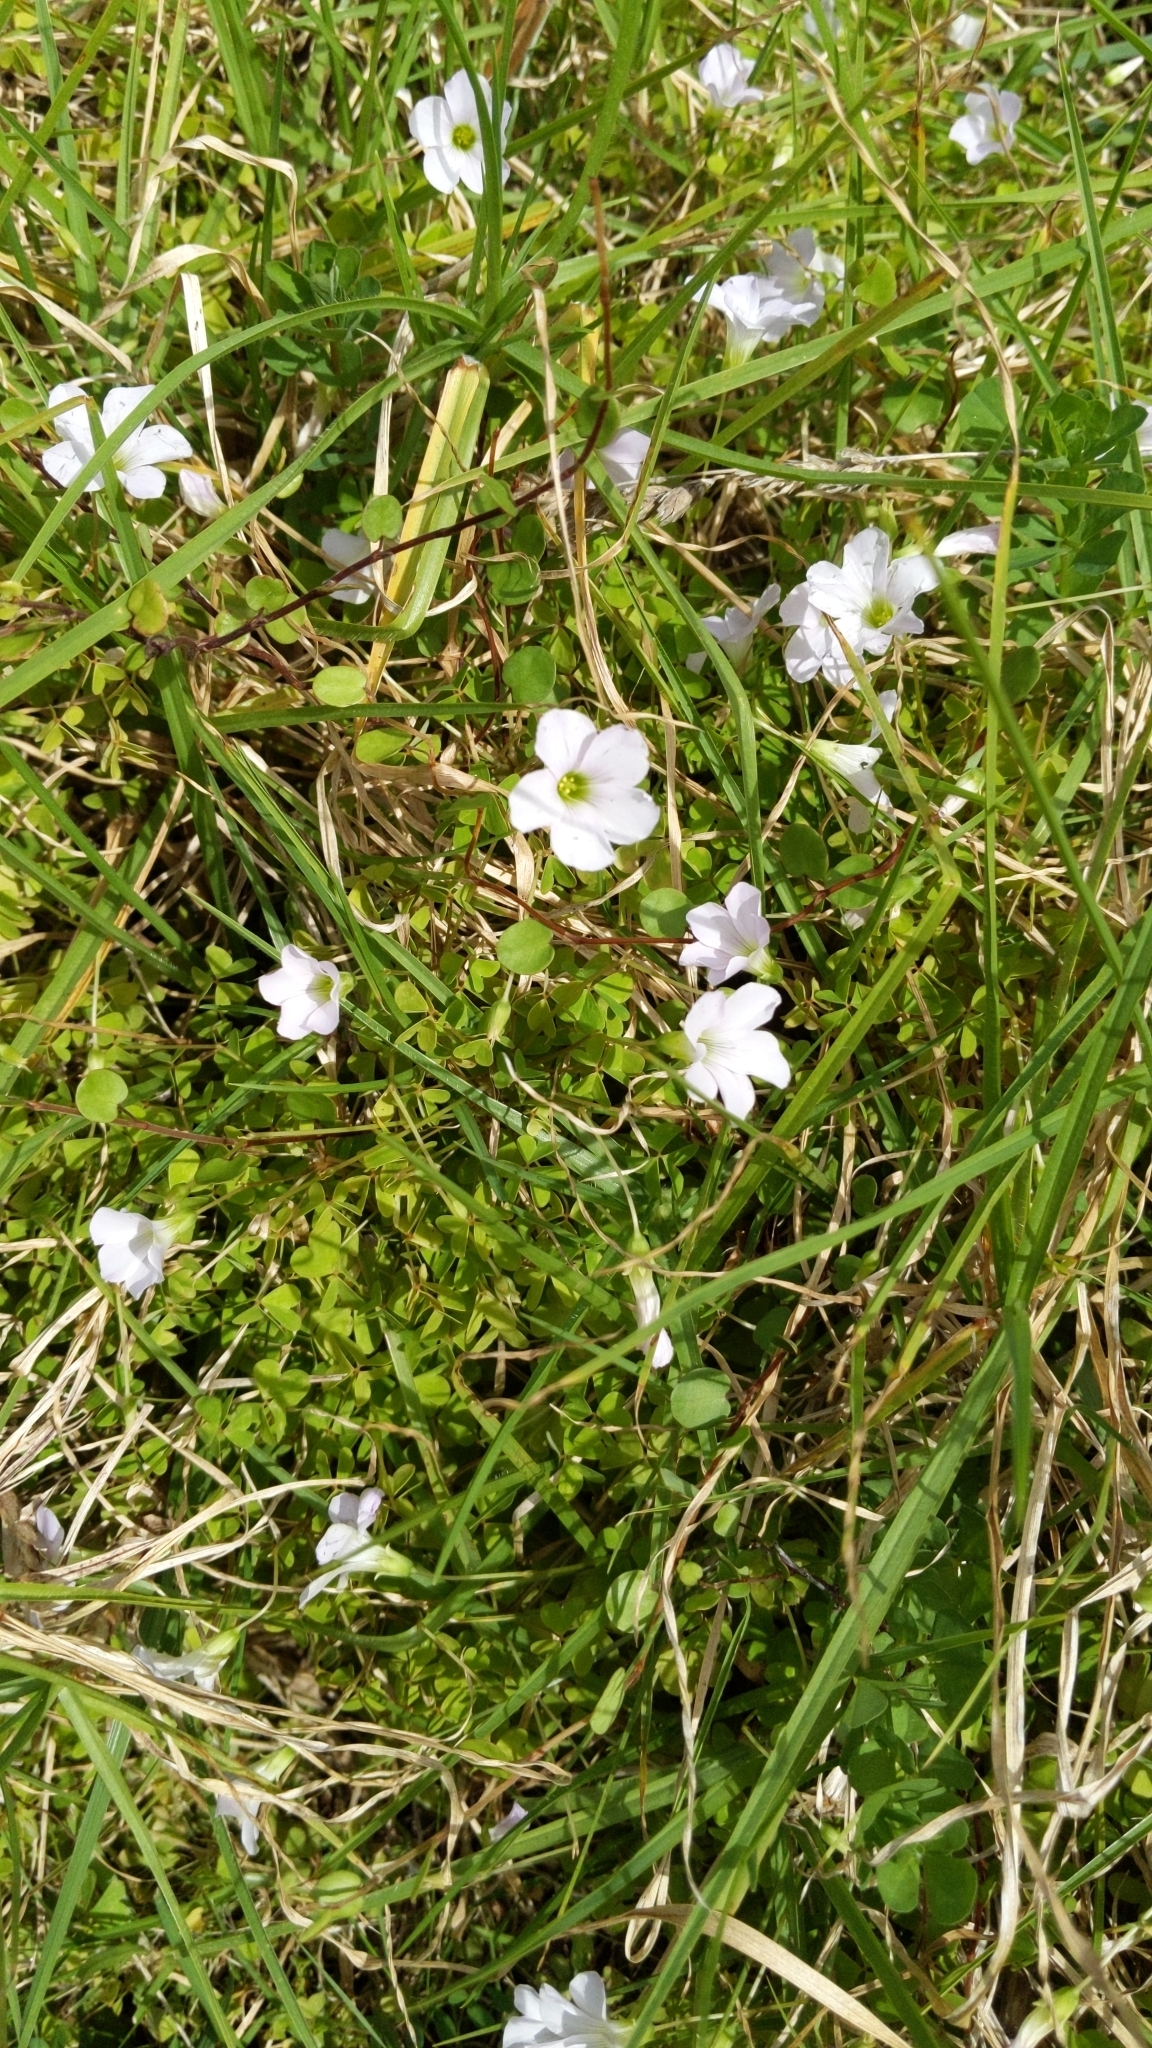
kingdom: Plantae
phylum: Tracheophyta
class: Magnoliopsida
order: Oxalidales
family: Oxalidaceae
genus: Oxalis
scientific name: Oxalis incarnata
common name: Pale pink-sorrel
